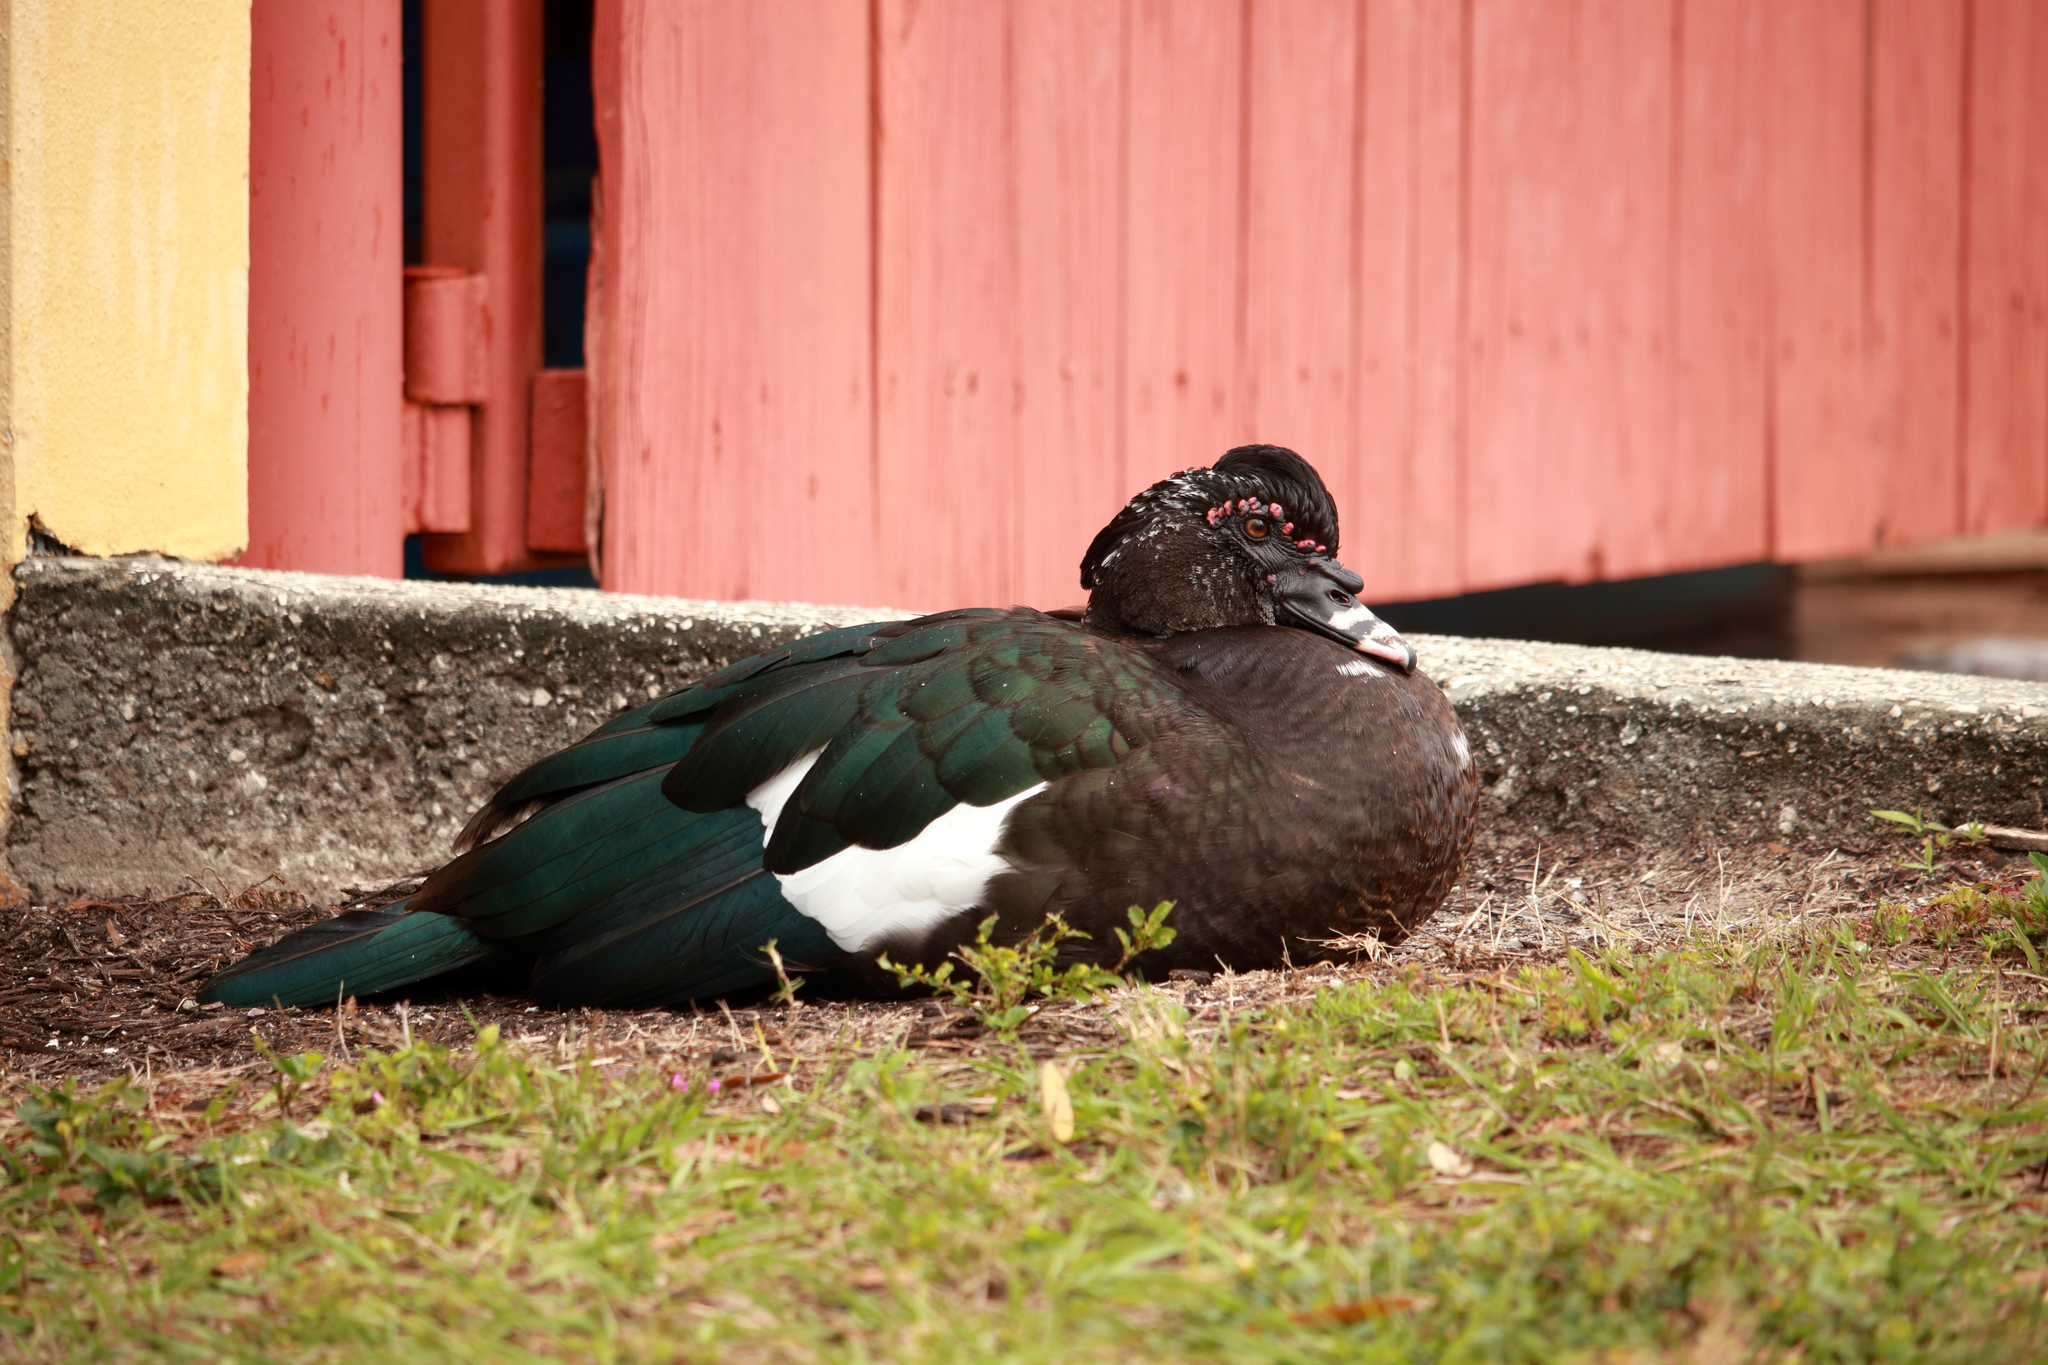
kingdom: Animalia
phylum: Chordata
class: Aves
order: Anseriformes
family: Anatidae
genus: Cairina
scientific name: Cairina moschata
